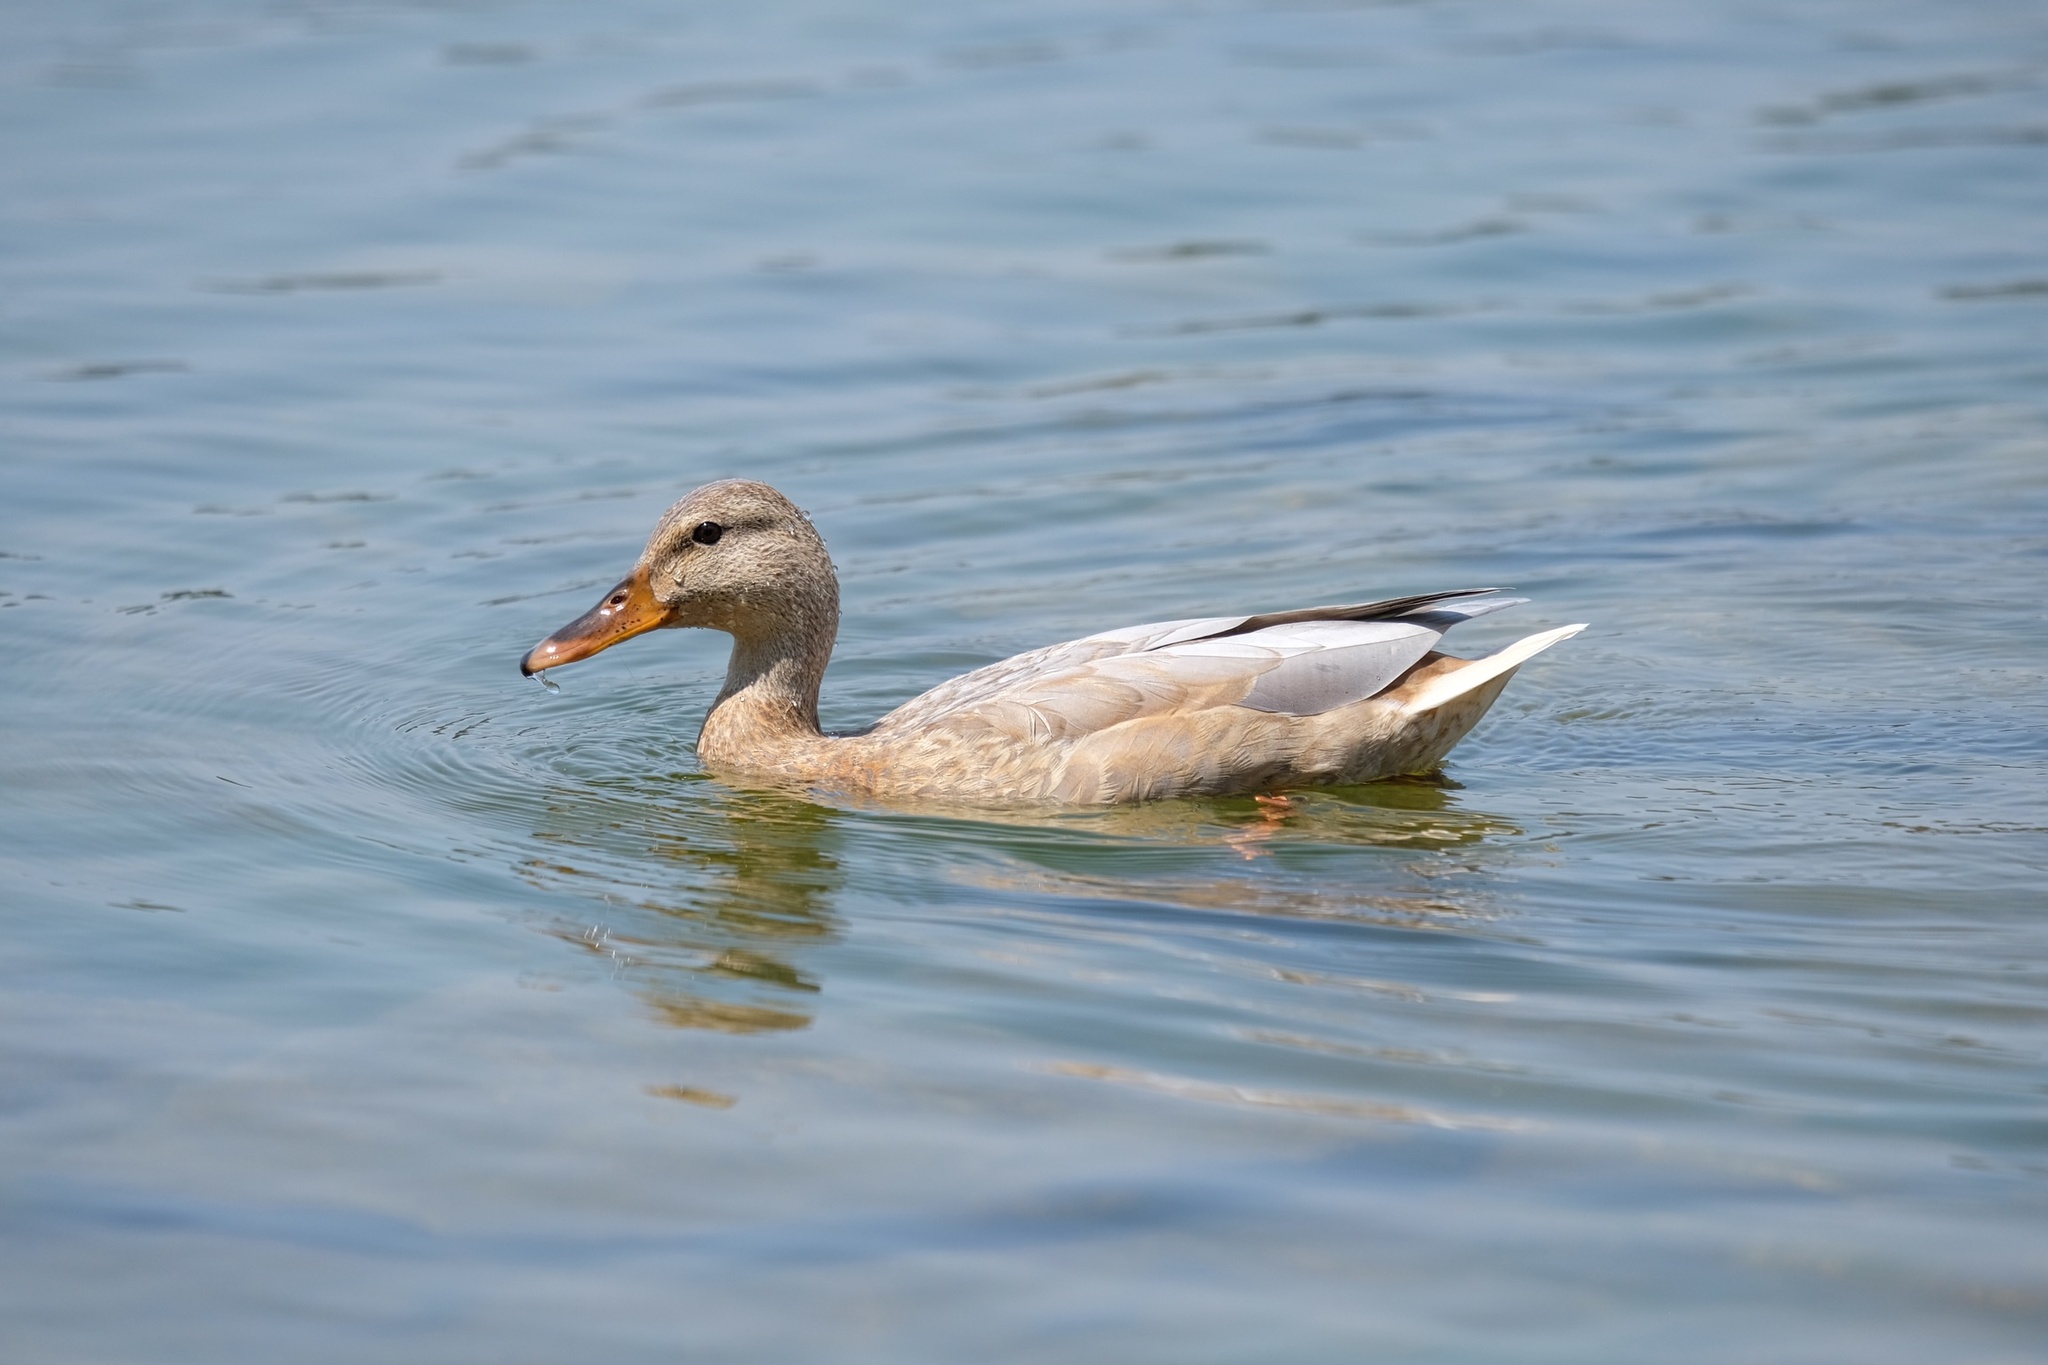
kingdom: Animalia
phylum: Chordata
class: Aves
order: Anseriformes
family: Anatidae
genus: Anas
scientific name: Anas platyrhynchos
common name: Mallard
